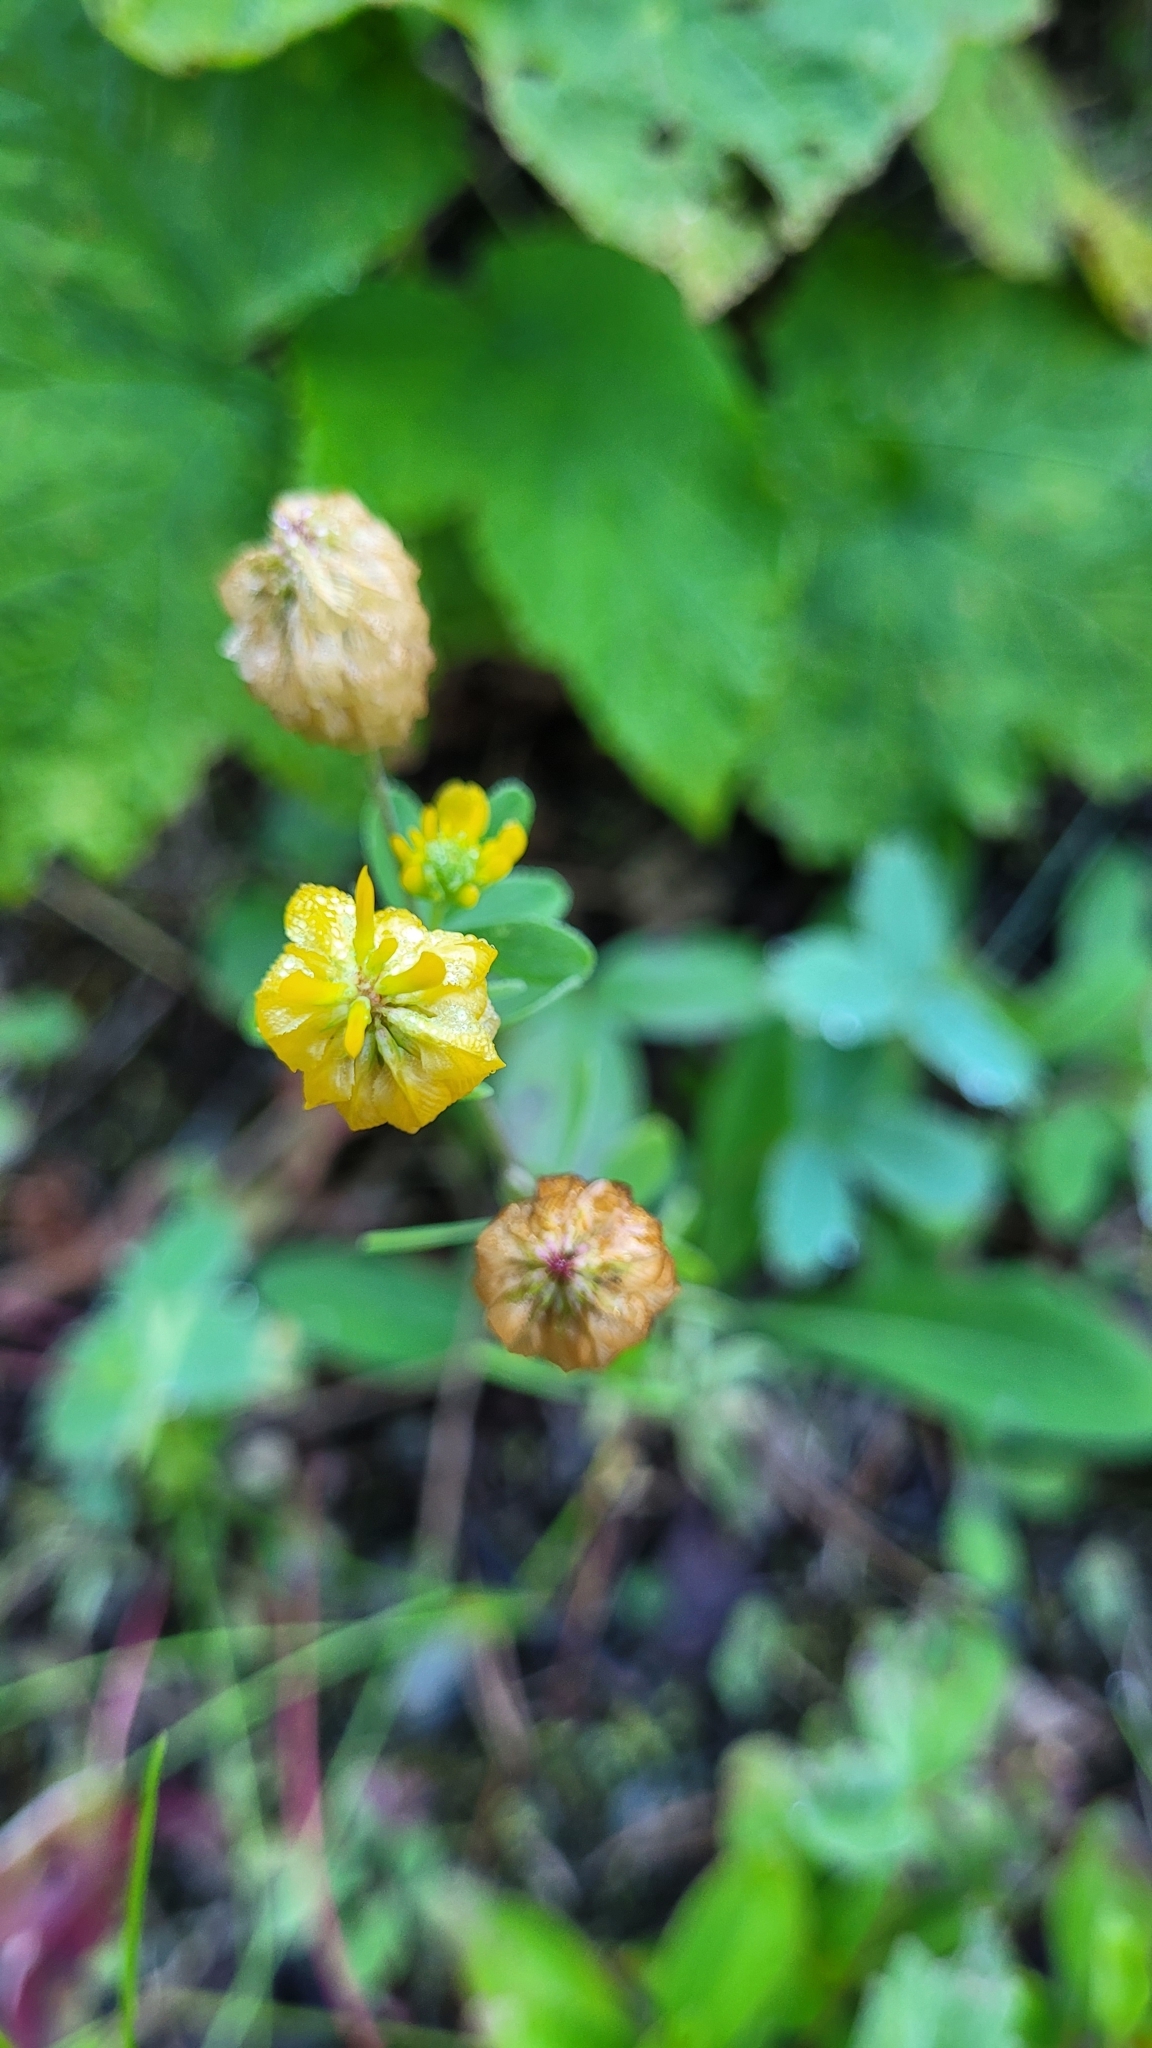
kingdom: Plantae
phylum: Tracheophyta
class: Magnoliopsida
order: Fabales
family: Fabaceae
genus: Trifolium
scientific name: Trifolium aureum
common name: Golden clover
